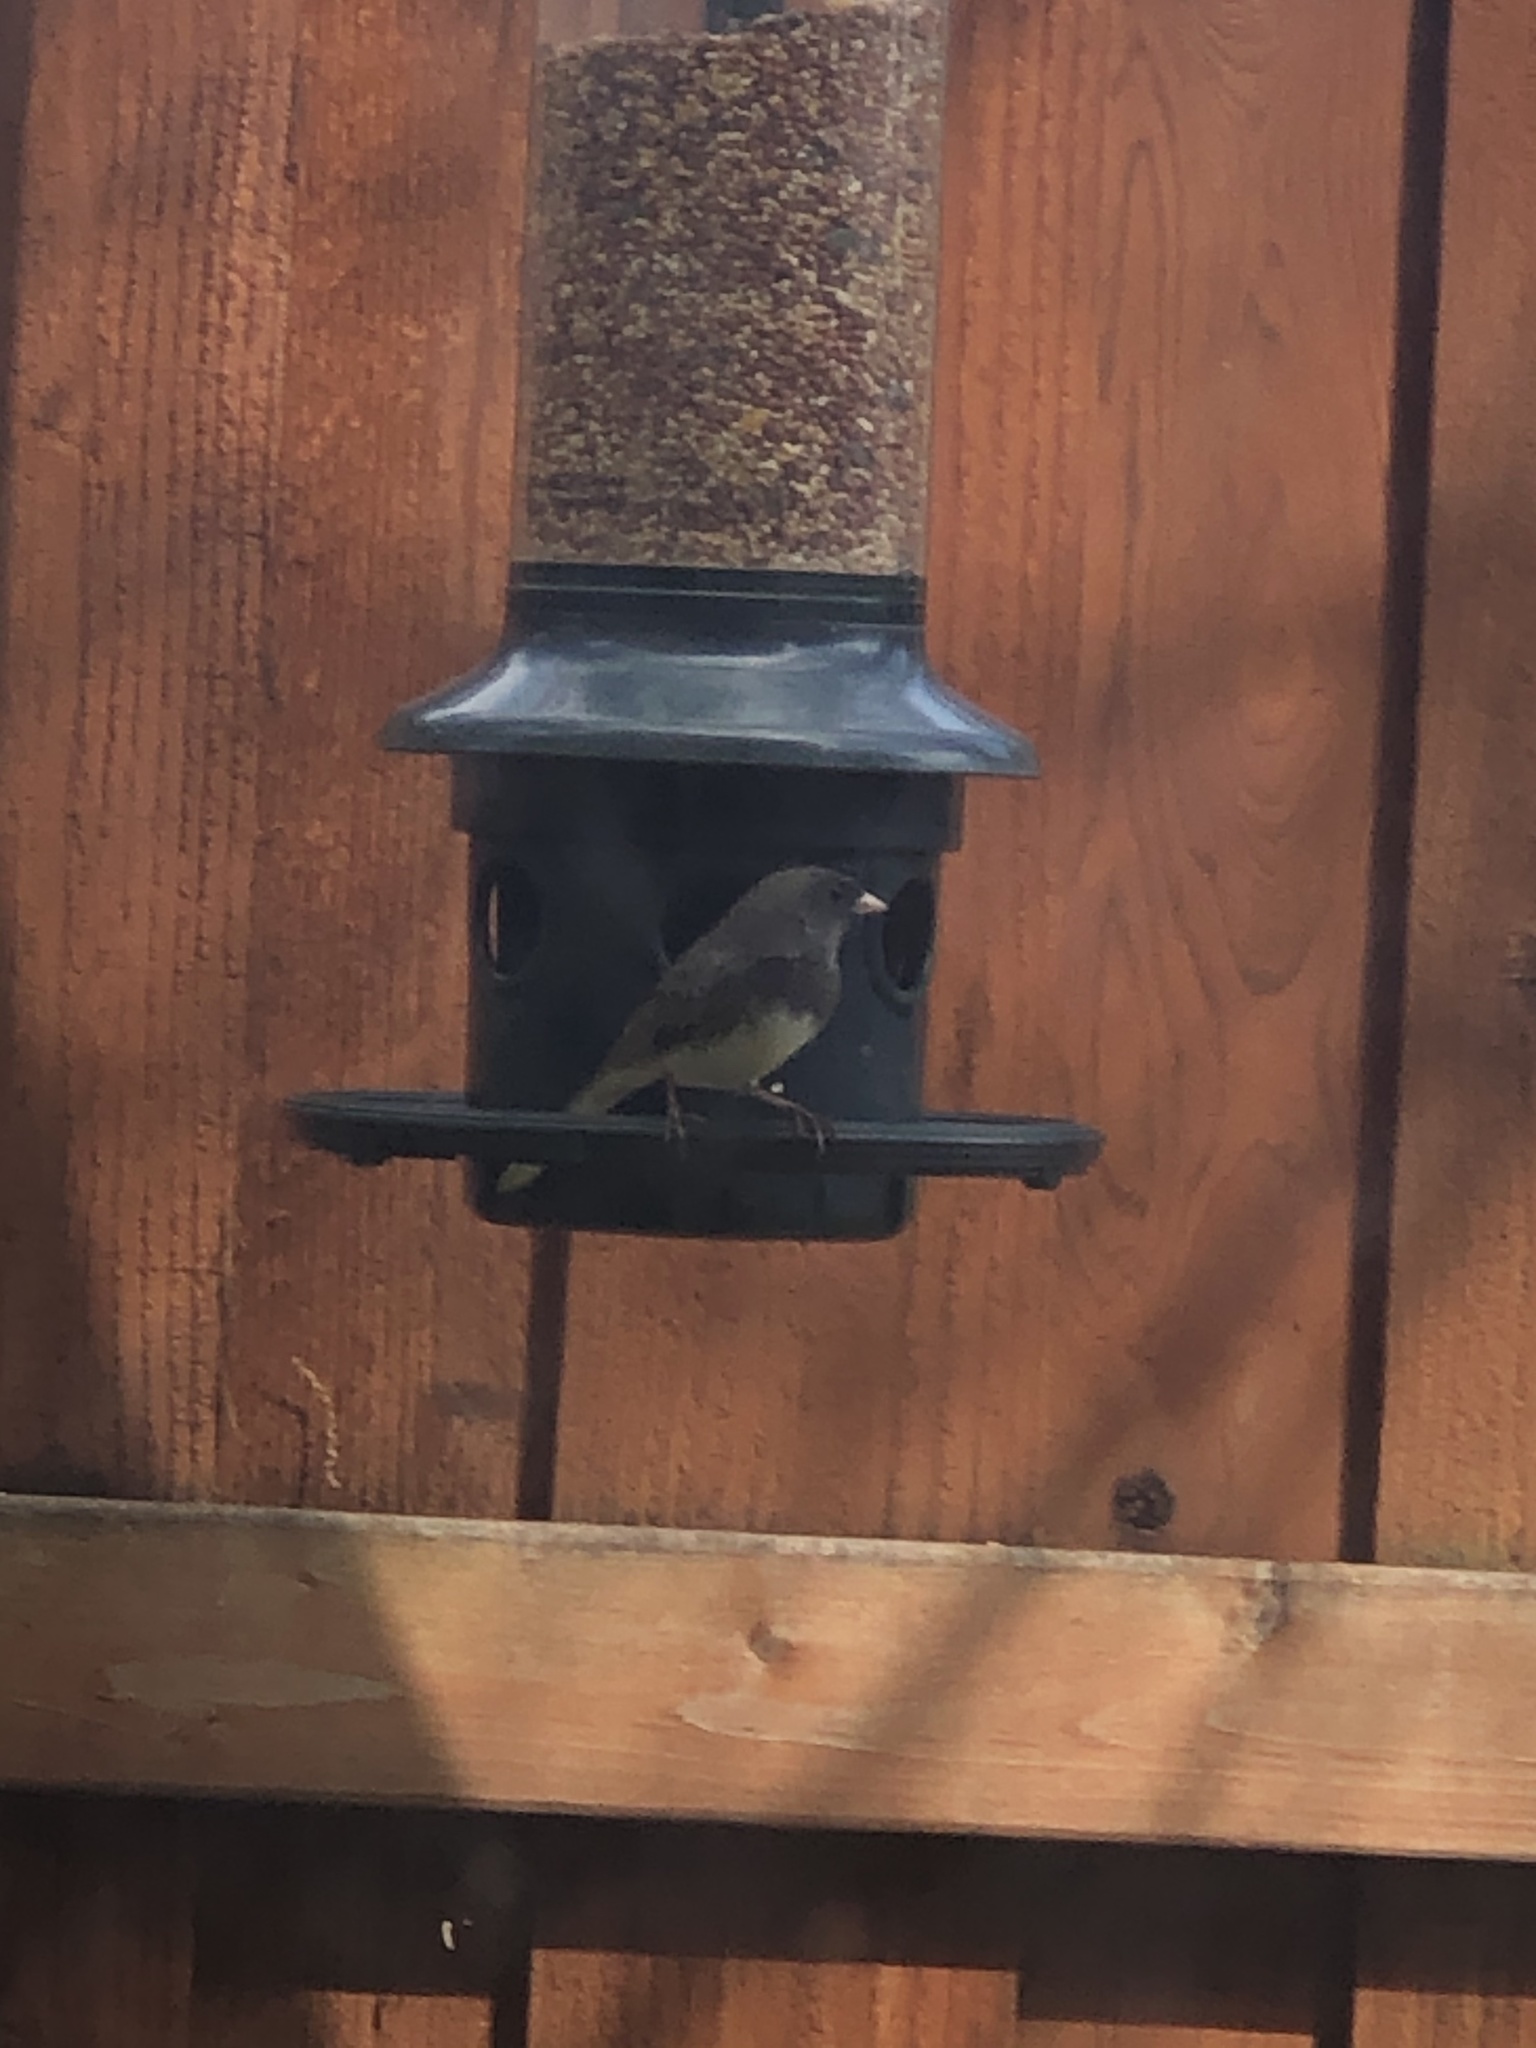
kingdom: Animalia
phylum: Chordata
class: Aves
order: Passeriformes
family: Passerellidae
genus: Junco
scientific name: Junco hyemalis
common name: Dark-eyed junco
